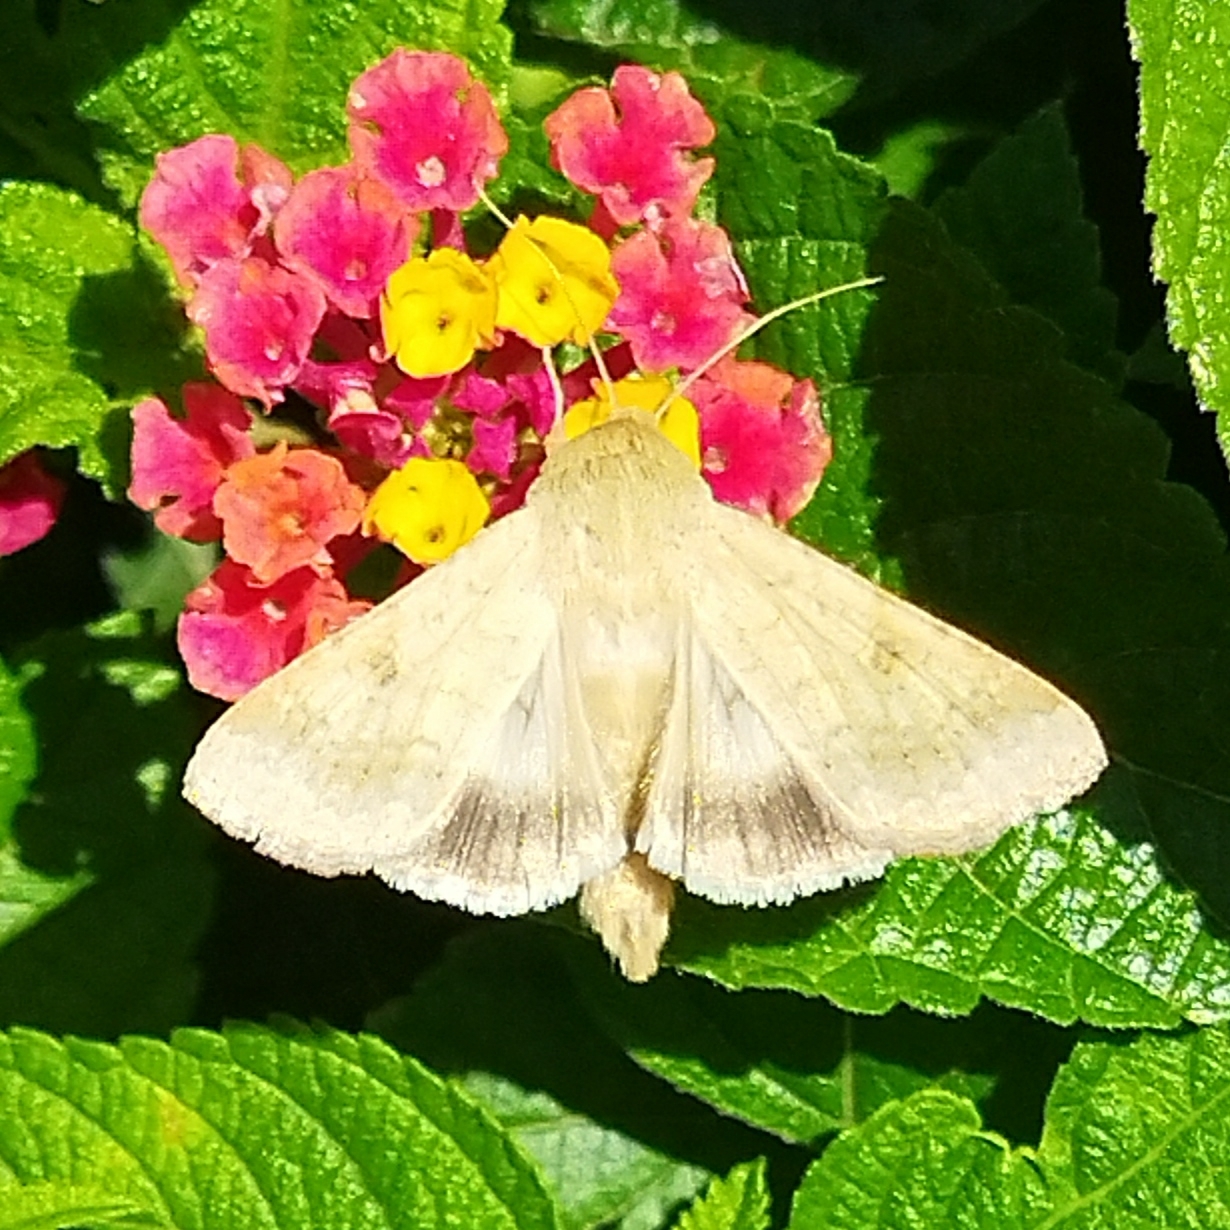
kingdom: Animalia
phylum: Arthropoda
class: Insecta
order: Lepidoptera
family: Noctuidae
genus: Helicoverpa
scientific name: Helicoverpa armigera
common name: Cotton bollworm
